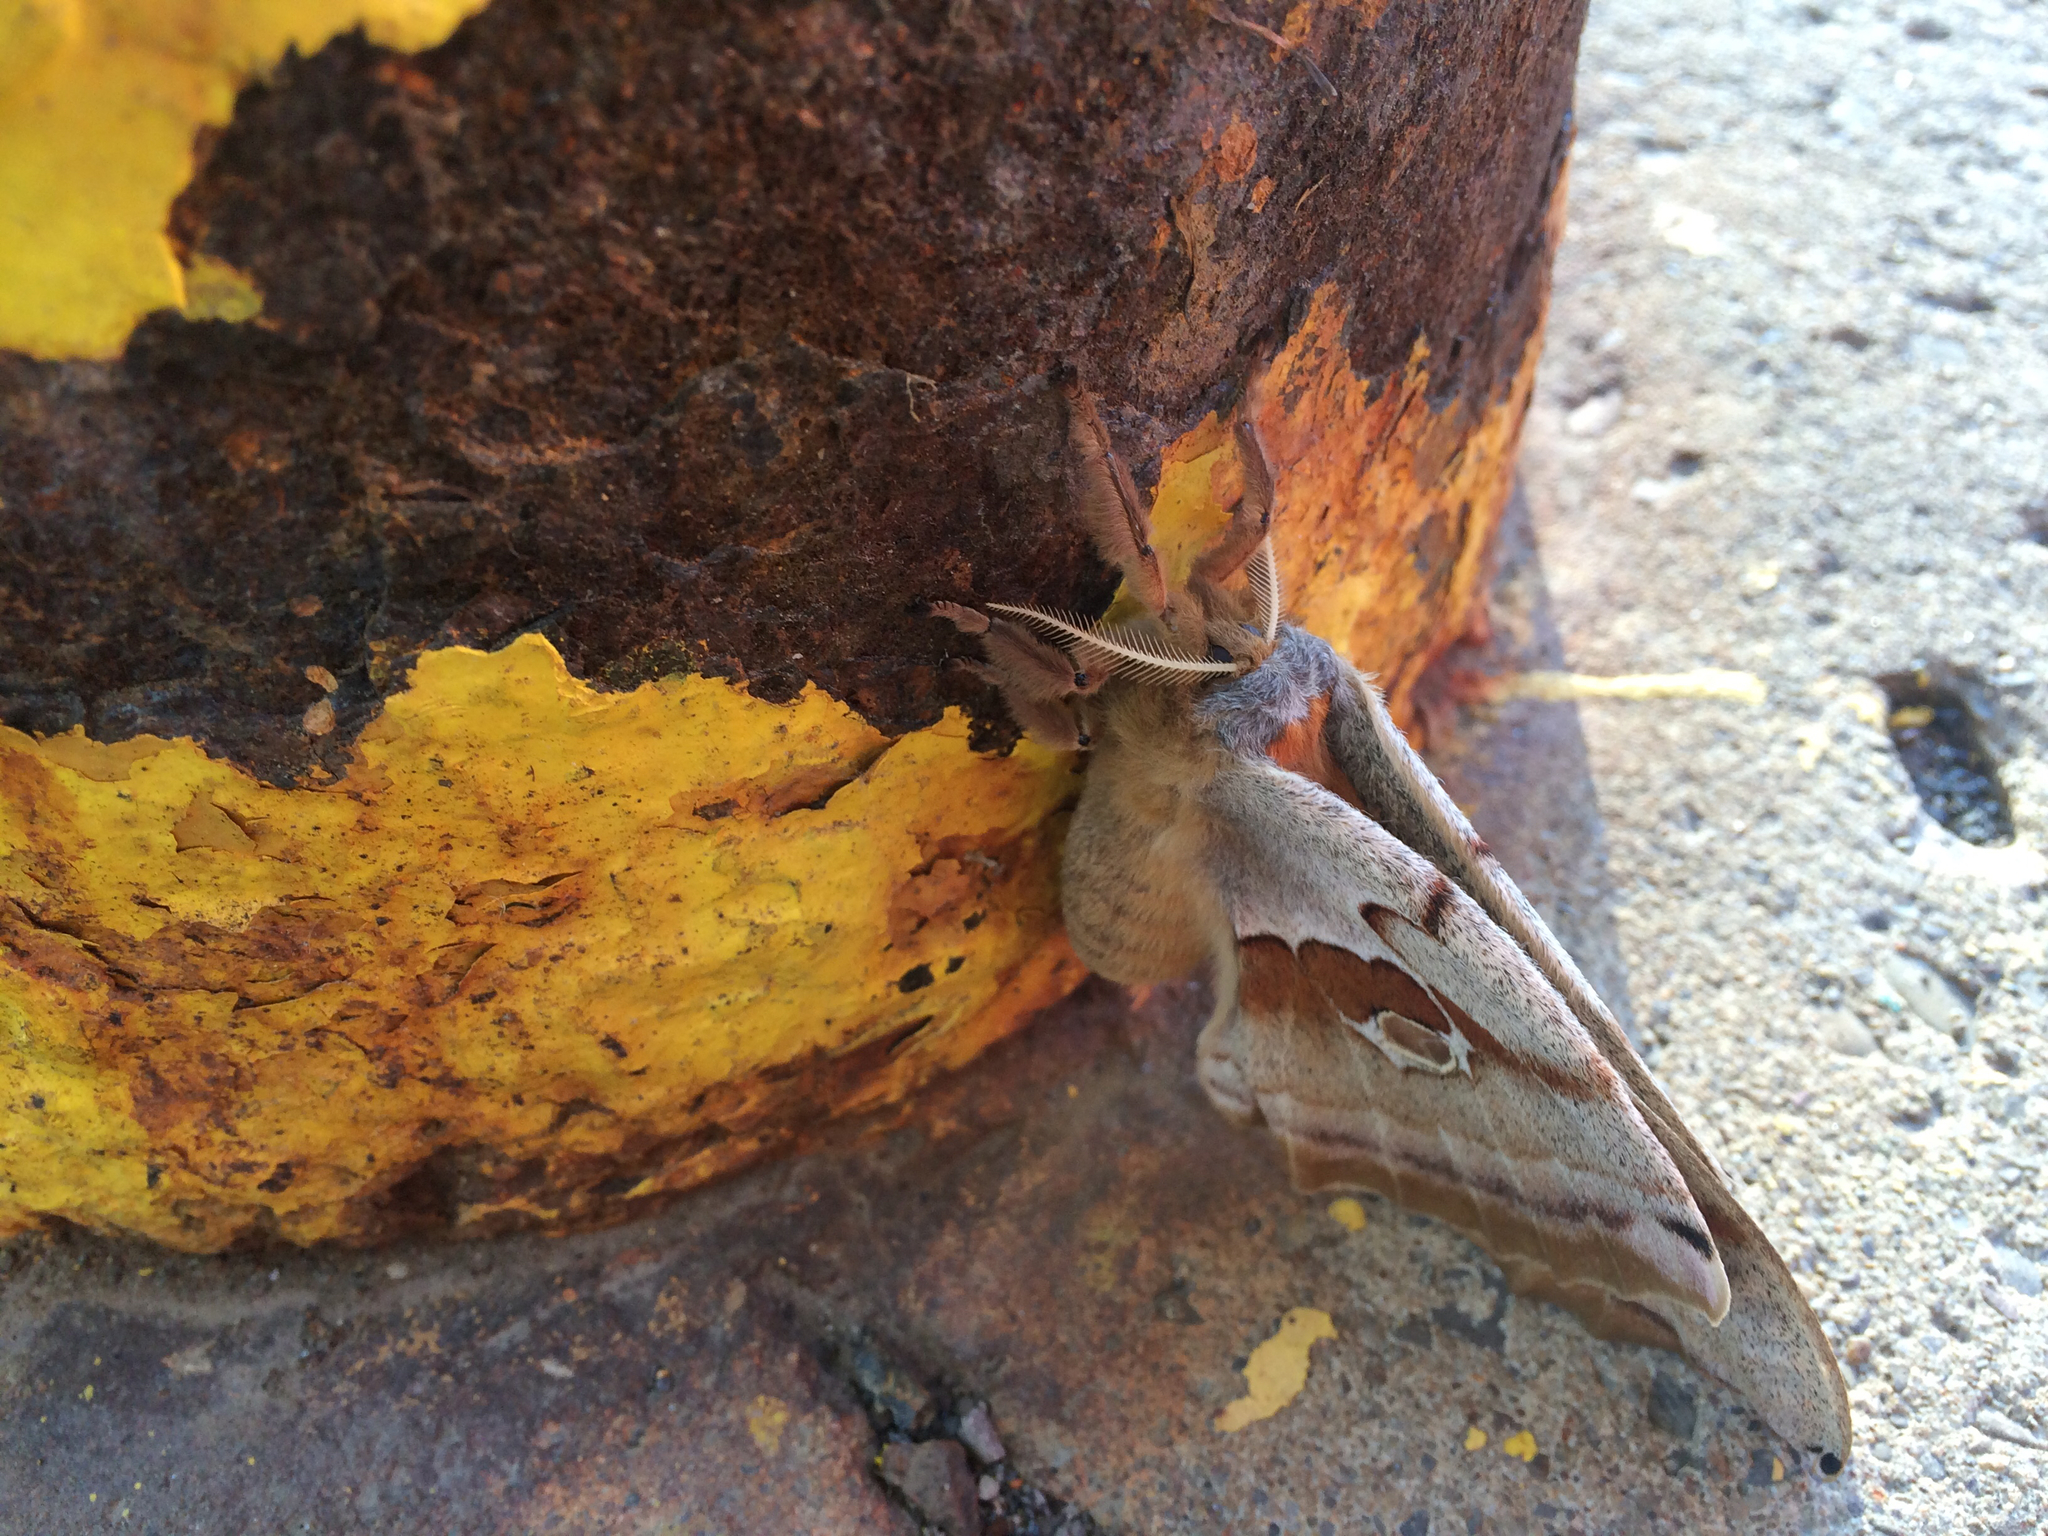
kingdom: Animalia
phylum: Arthropoda
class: Insecta
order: Lepidoptera
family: Saturniidae
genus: Antheraea
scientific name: Antheraea polyphemus
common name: Polyphemus moth
